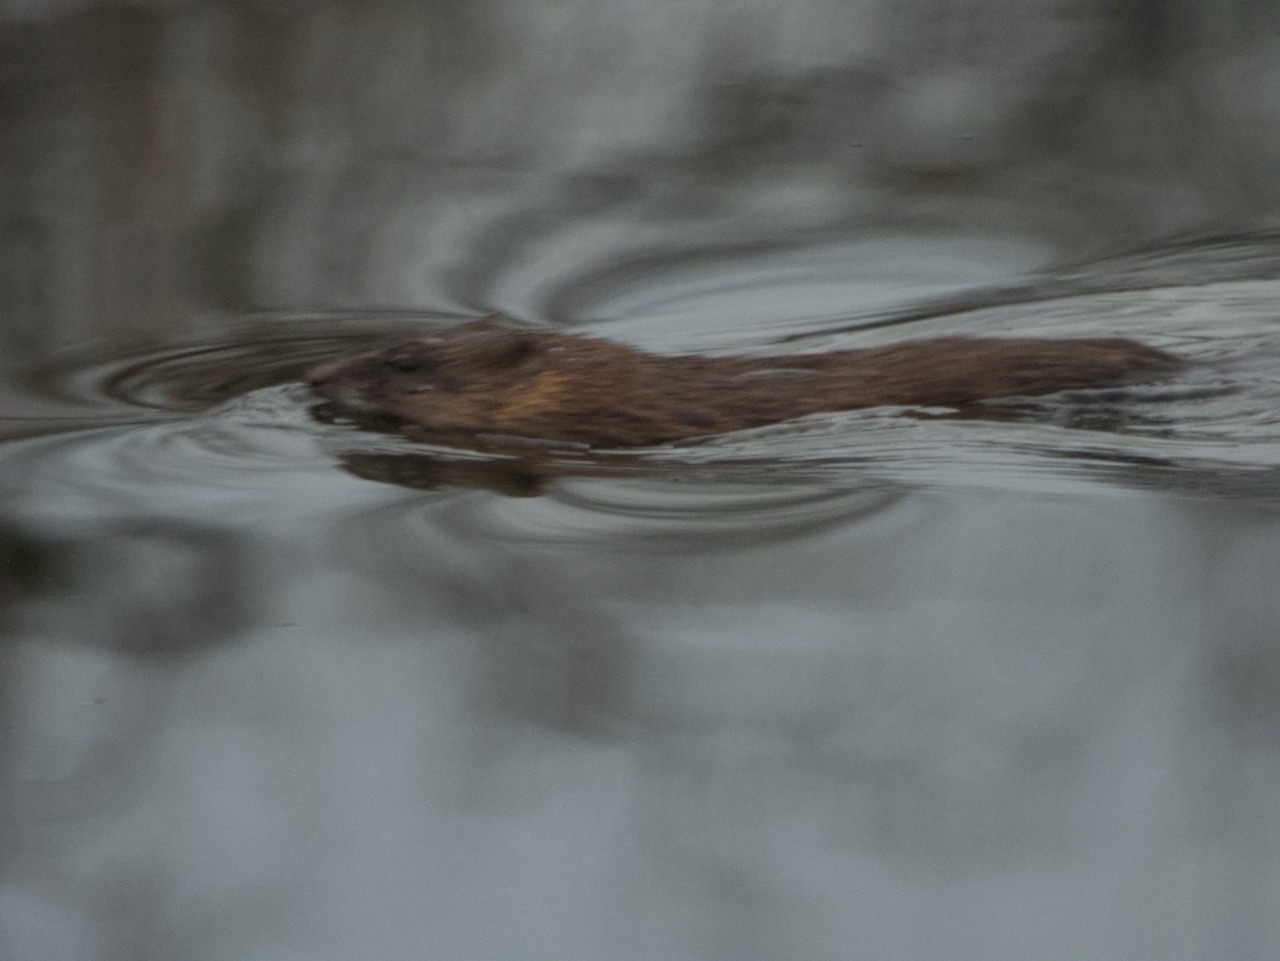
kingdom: Animalia
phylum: Chordata
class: Mammalia
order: Rodentia
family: Cricetidae
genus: Ondatra
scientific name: Ondatra zibethicus
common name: Muskrat
